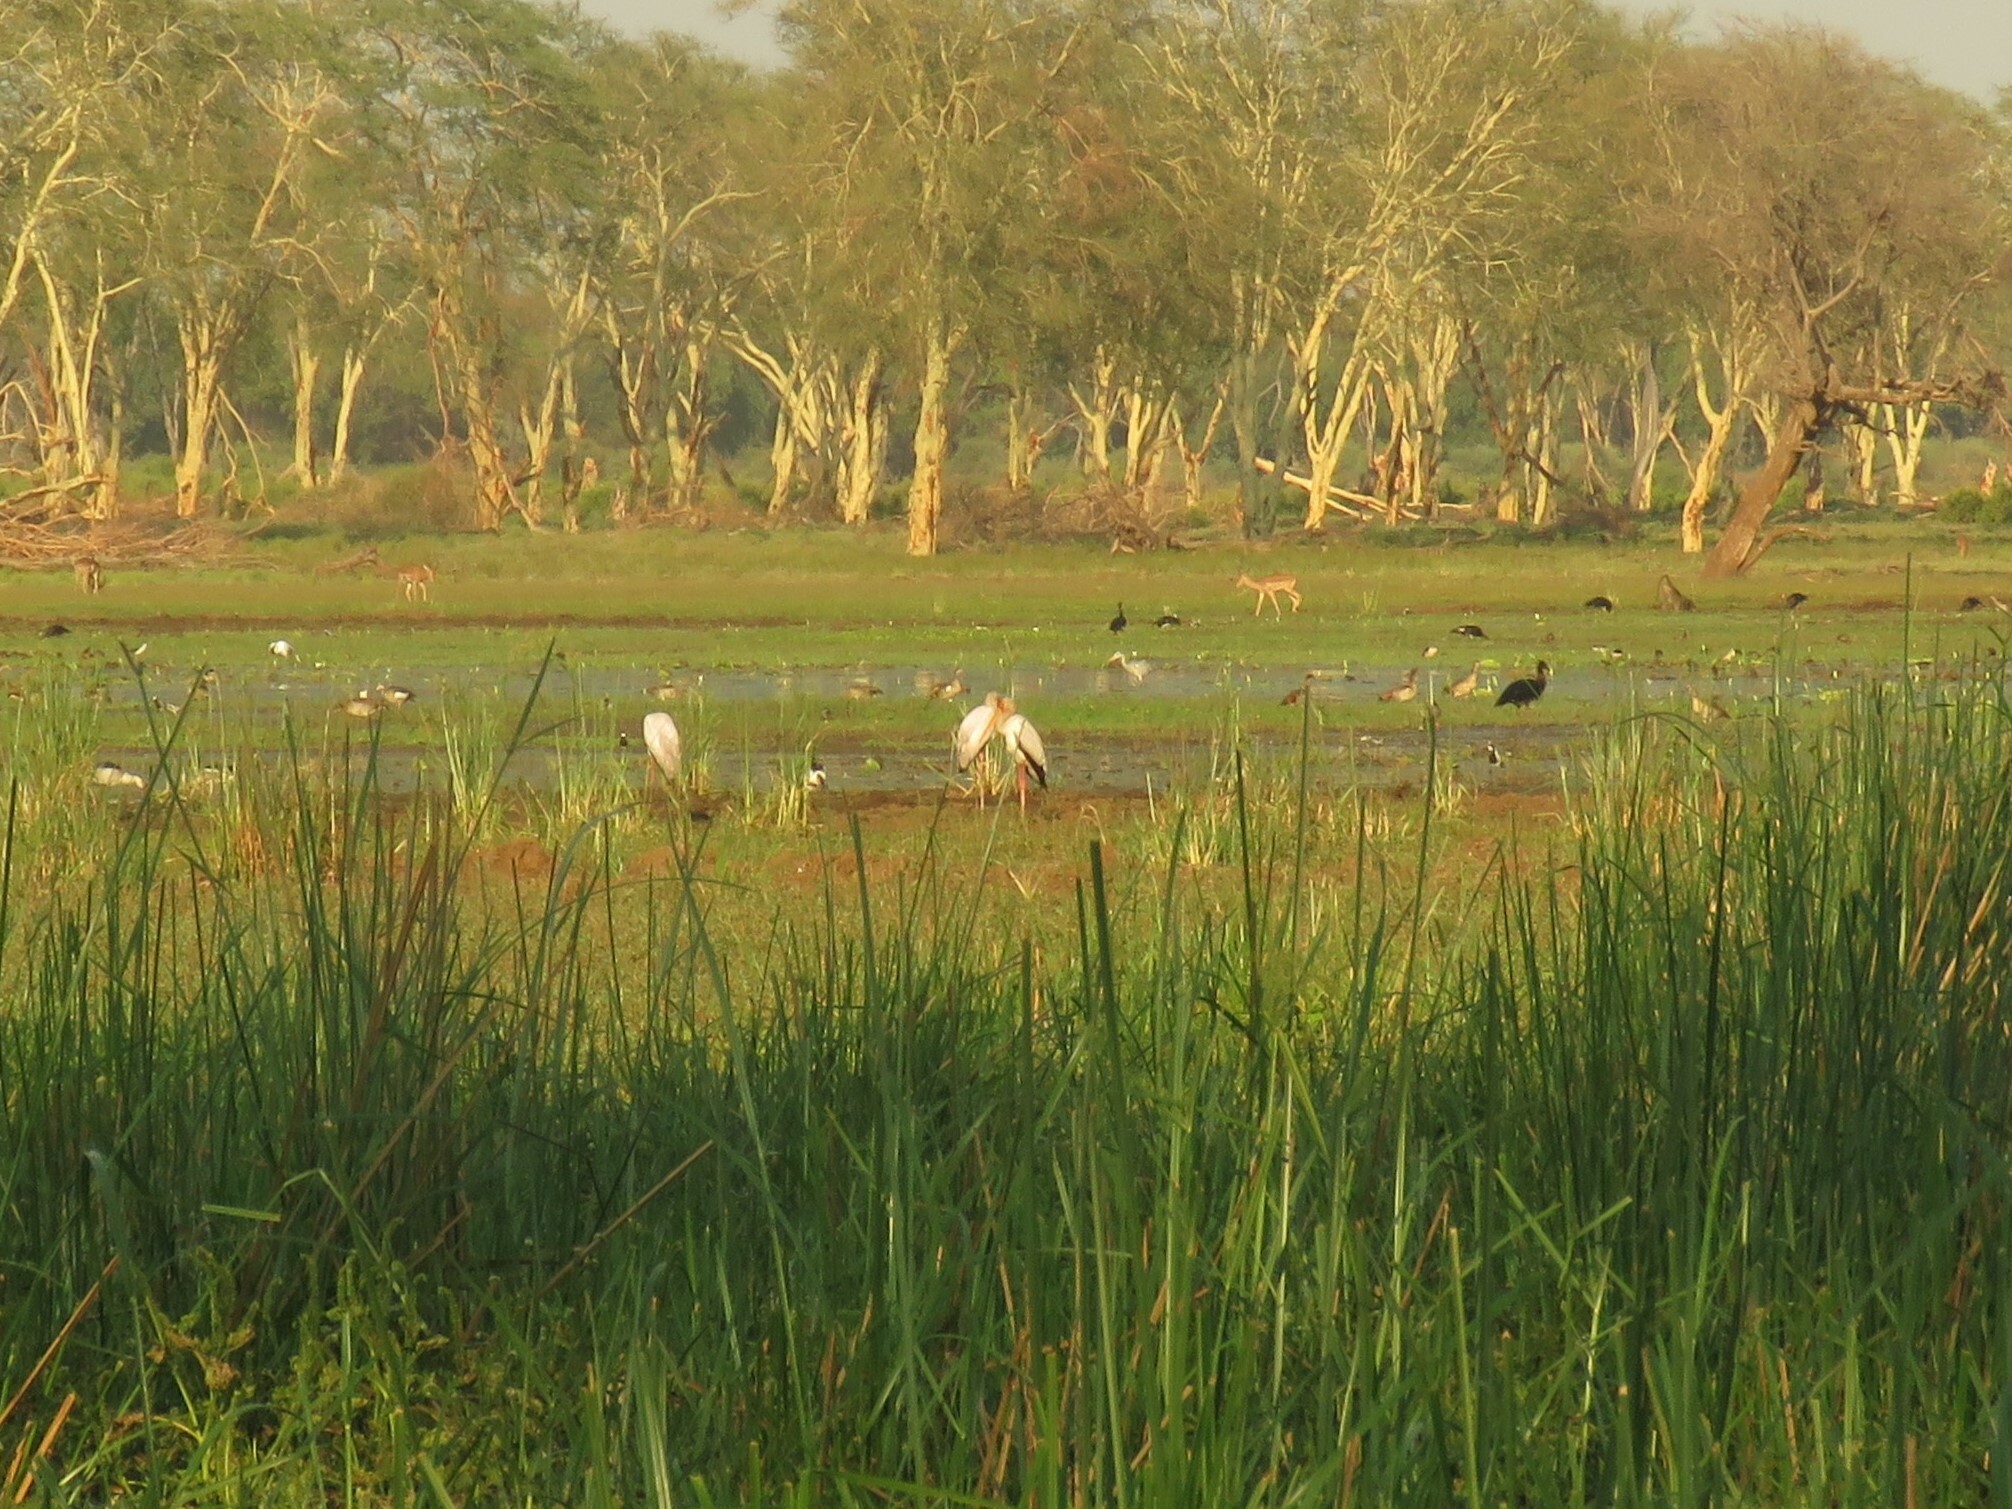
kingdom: Animalia
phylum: Chordata
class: Aves
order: Ciconiiformes
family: Ciconiidae
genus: Mycteria
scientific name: Mycteria ibis
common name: Yellow-billed stork
